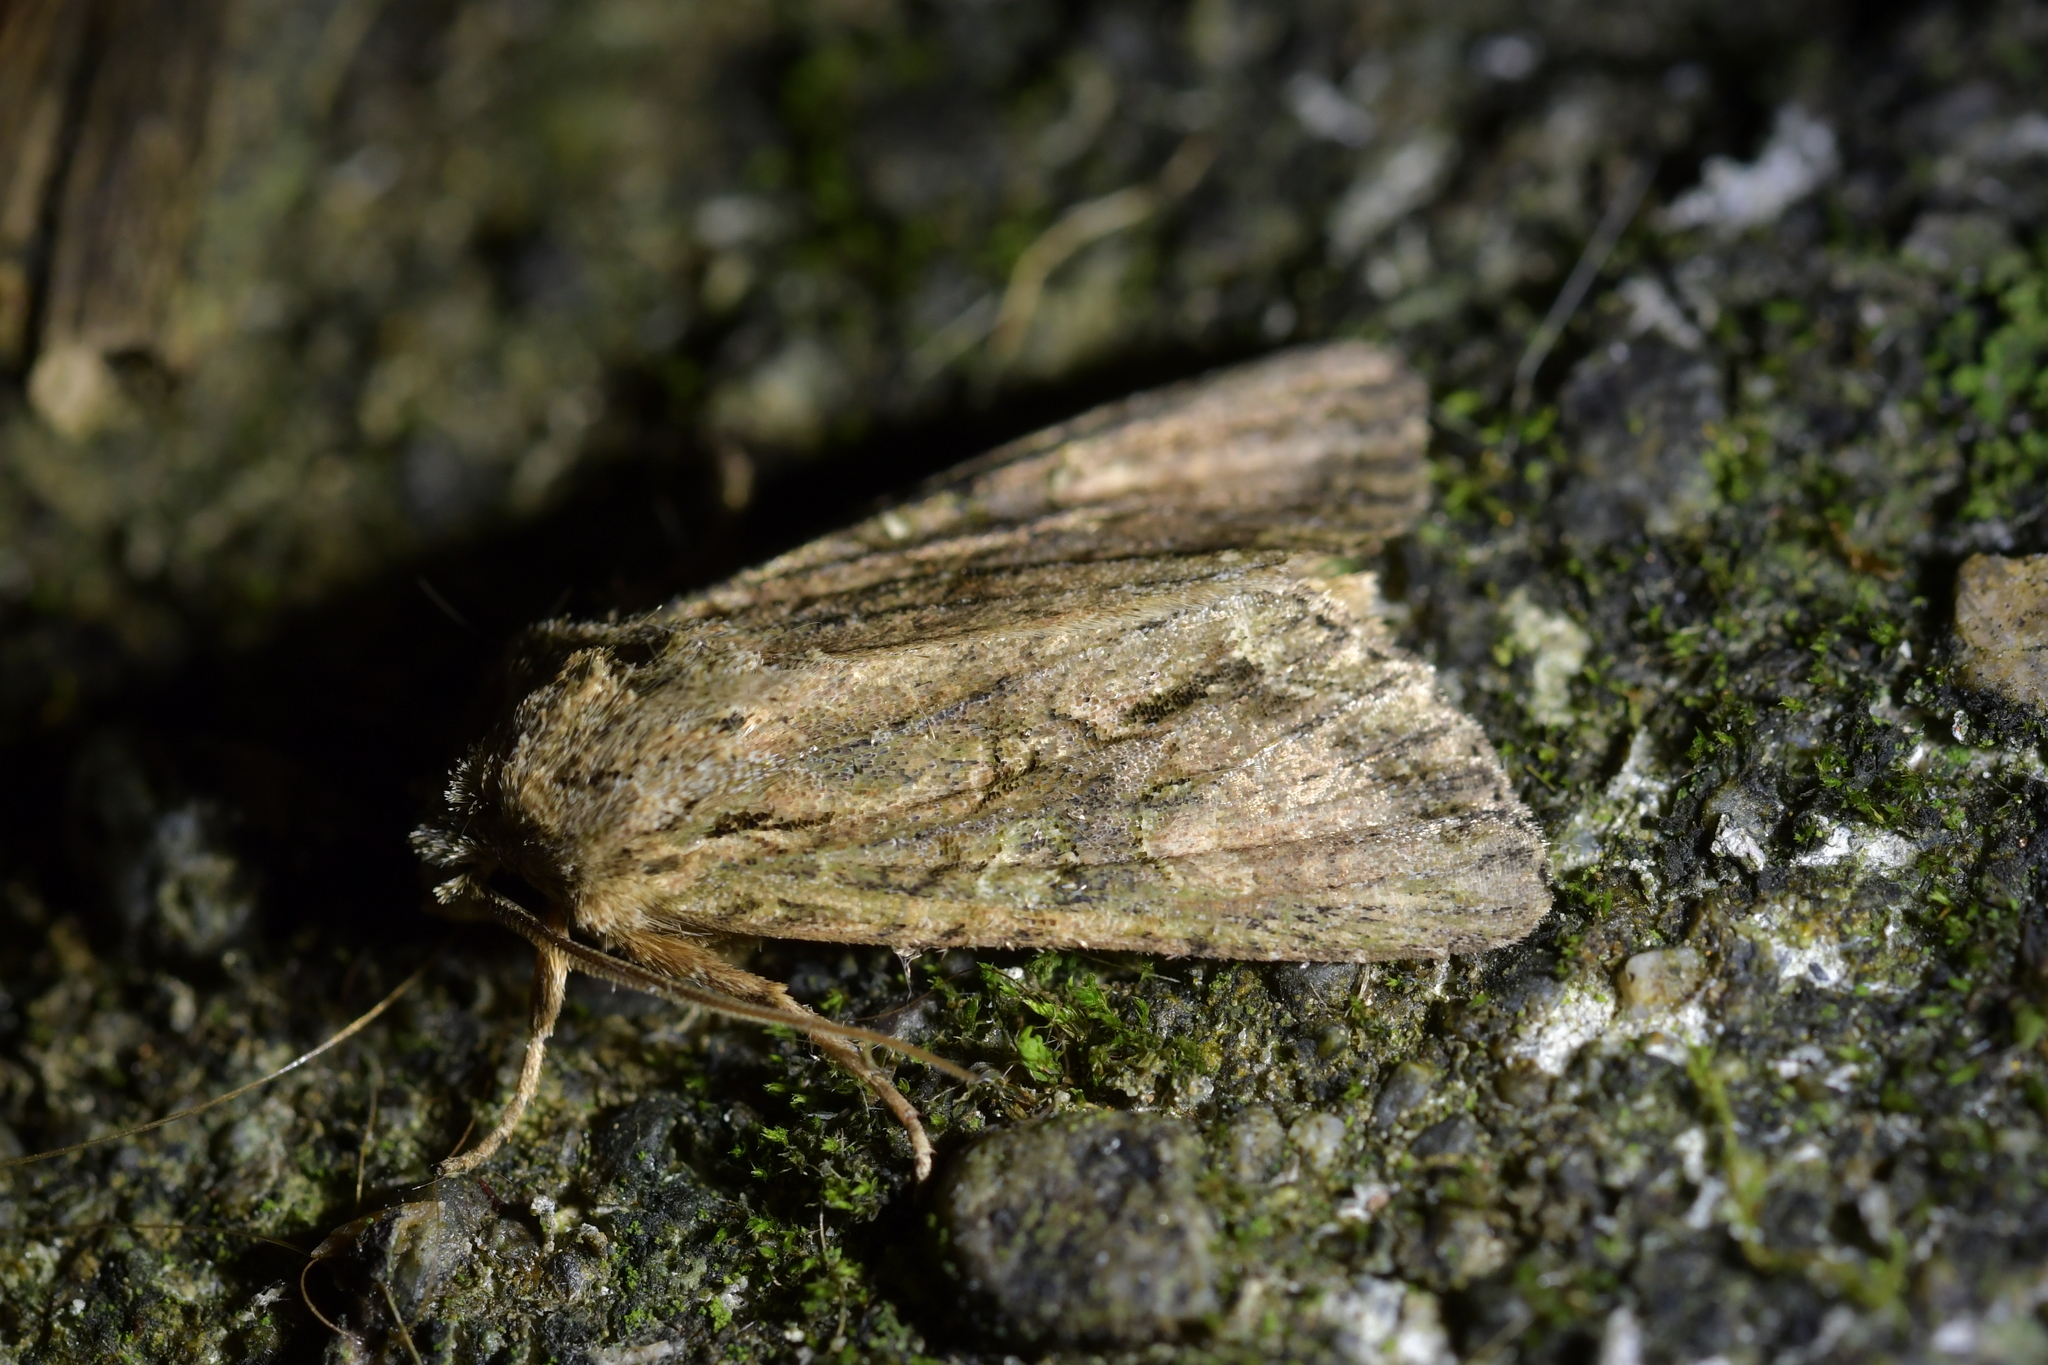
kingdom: Animalia
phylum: Arthropoda
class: Insecta
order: Lepidoptera
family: Noctuidae
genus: Ichneutica
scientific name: Ichneutica mutans
